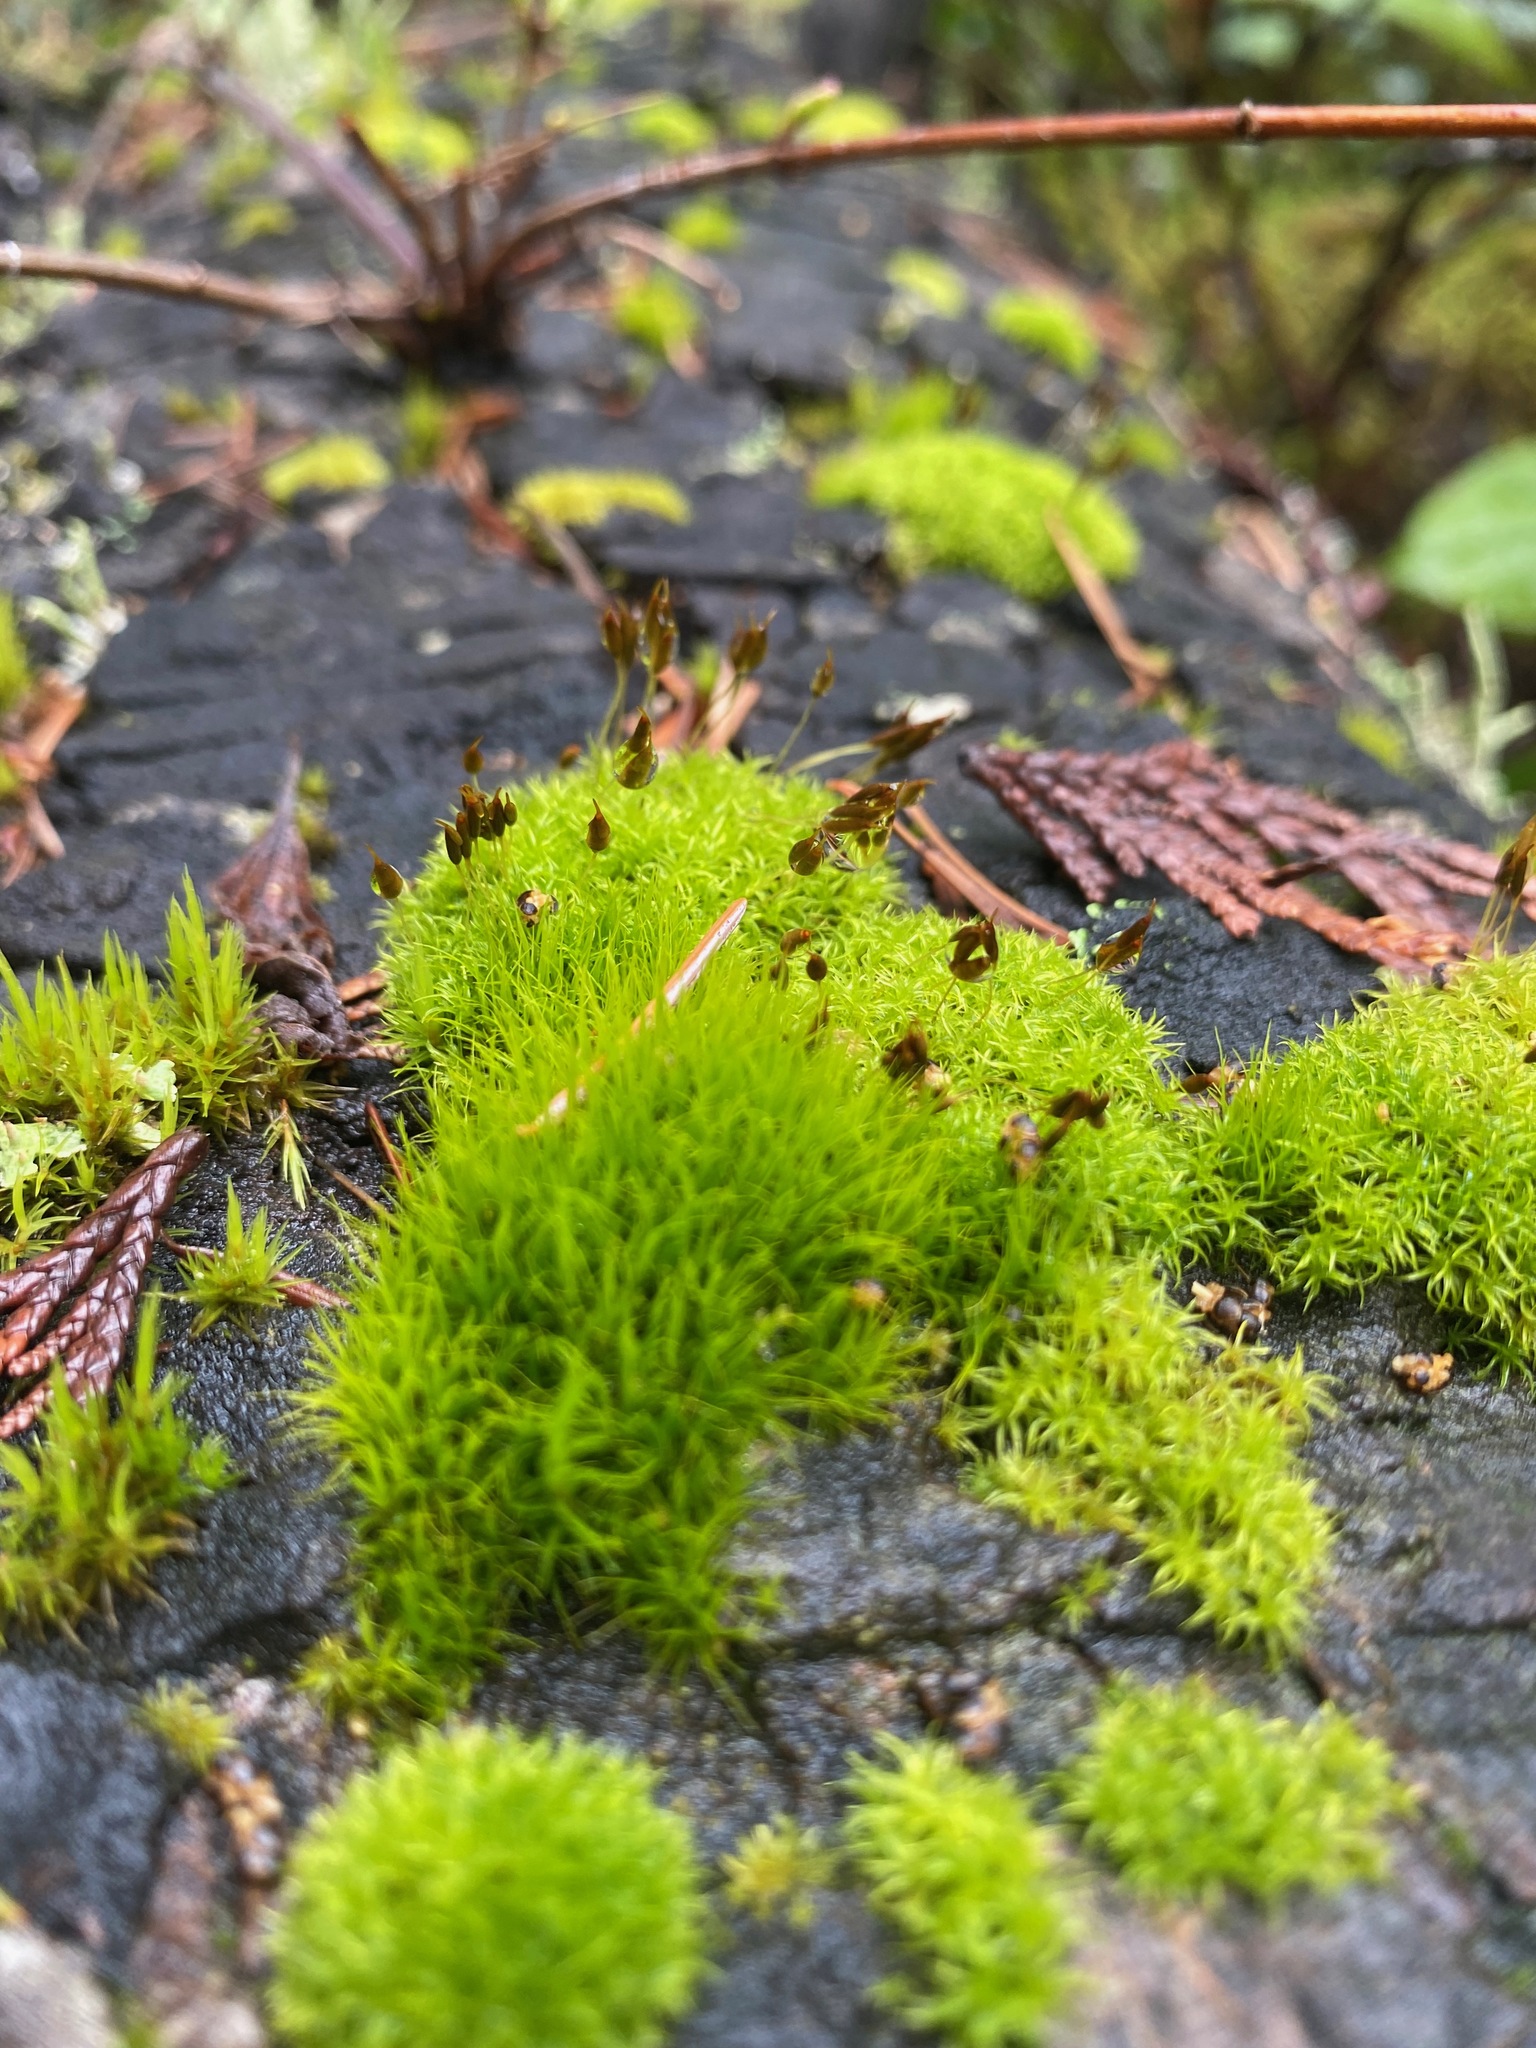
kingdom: Plantae
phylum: Bryophyta
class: Bryopsida
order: Dicranales
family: Rhabdoweisiaceae
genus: Dicranoweisia
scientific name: Dicranoweisia cirrata
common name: Common pincushion
